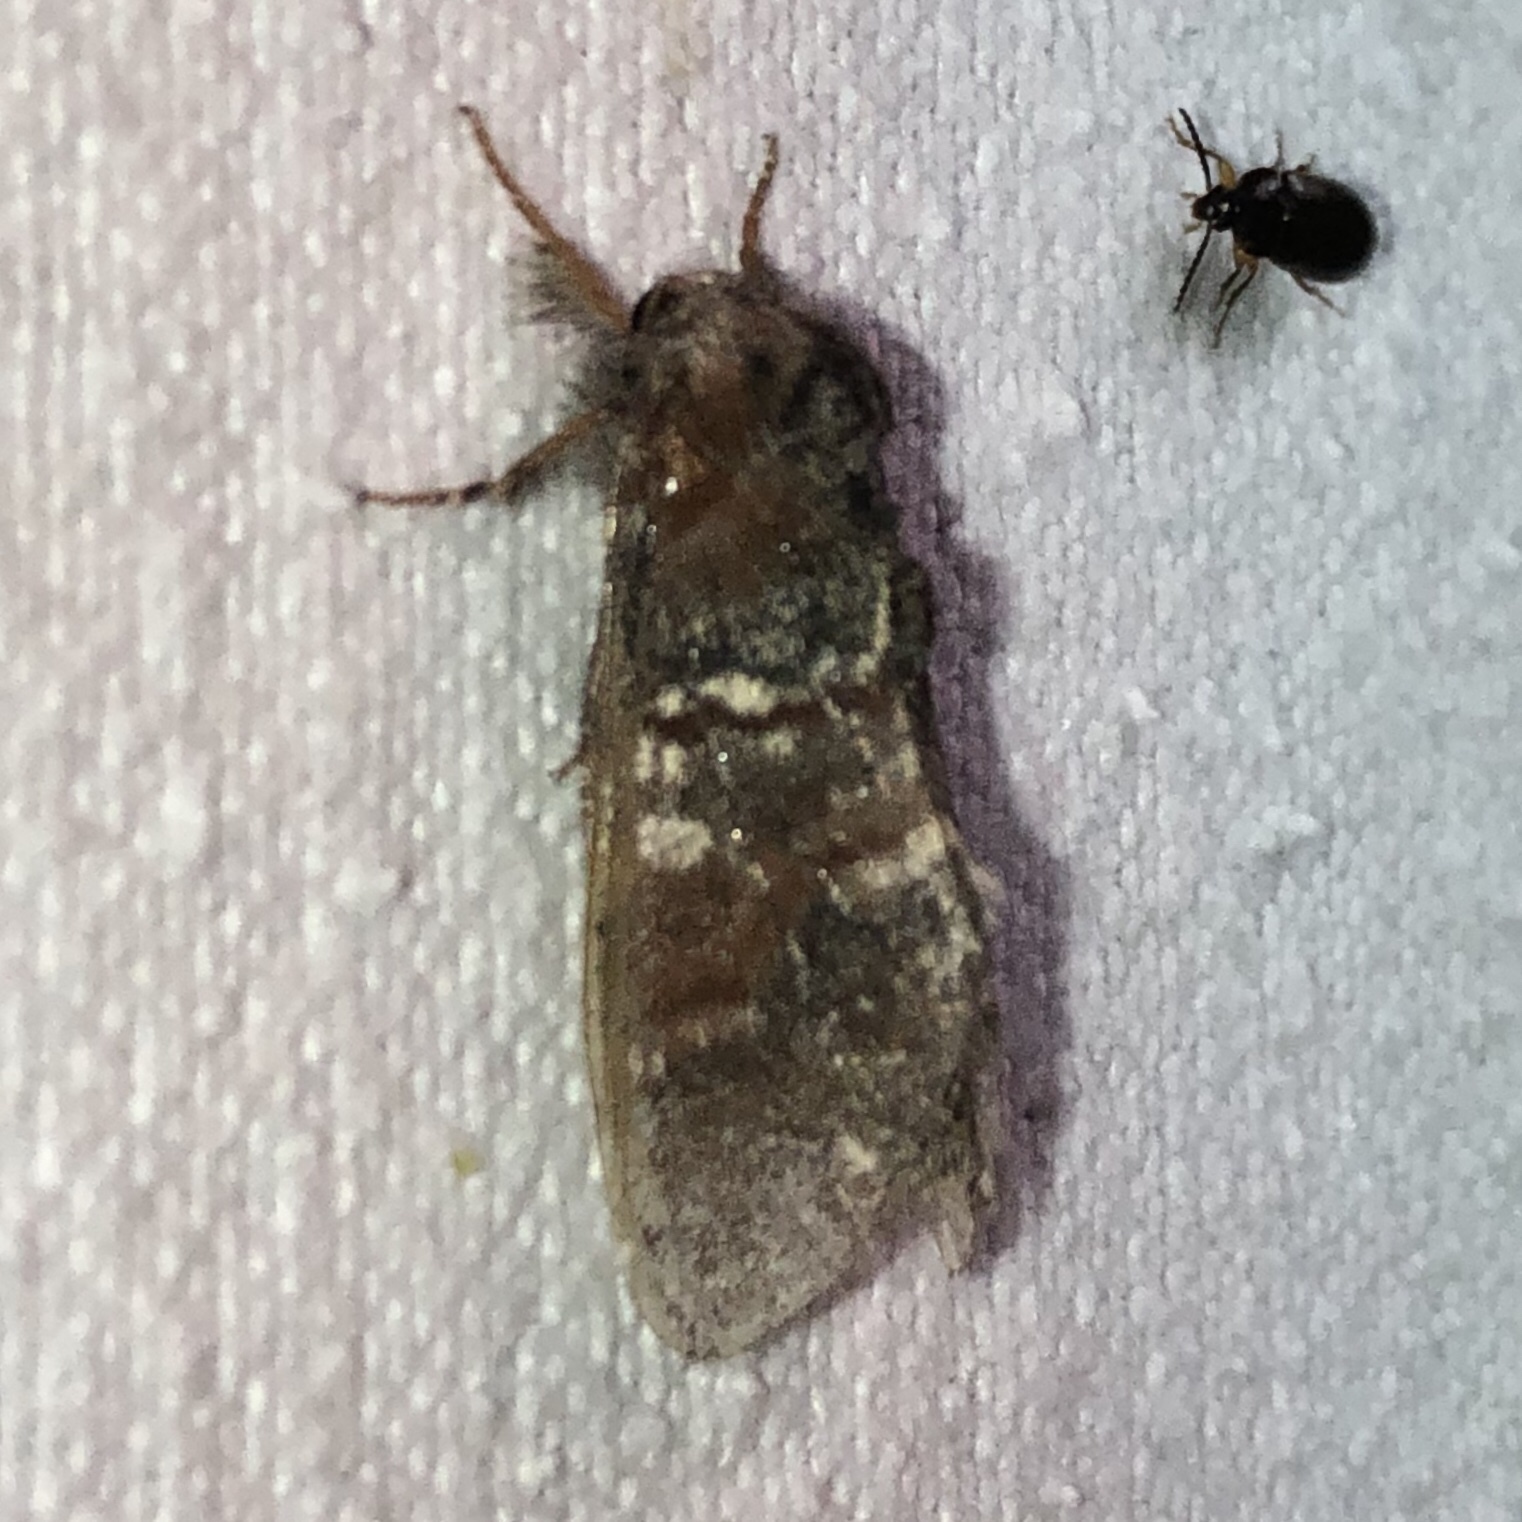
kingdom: Animalia
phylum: Arthropoda
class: Insecta
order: Lepidoptera
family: Notodontidae
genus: Peridea
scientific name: Peridea ferruginea
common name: Chocolate prominent
